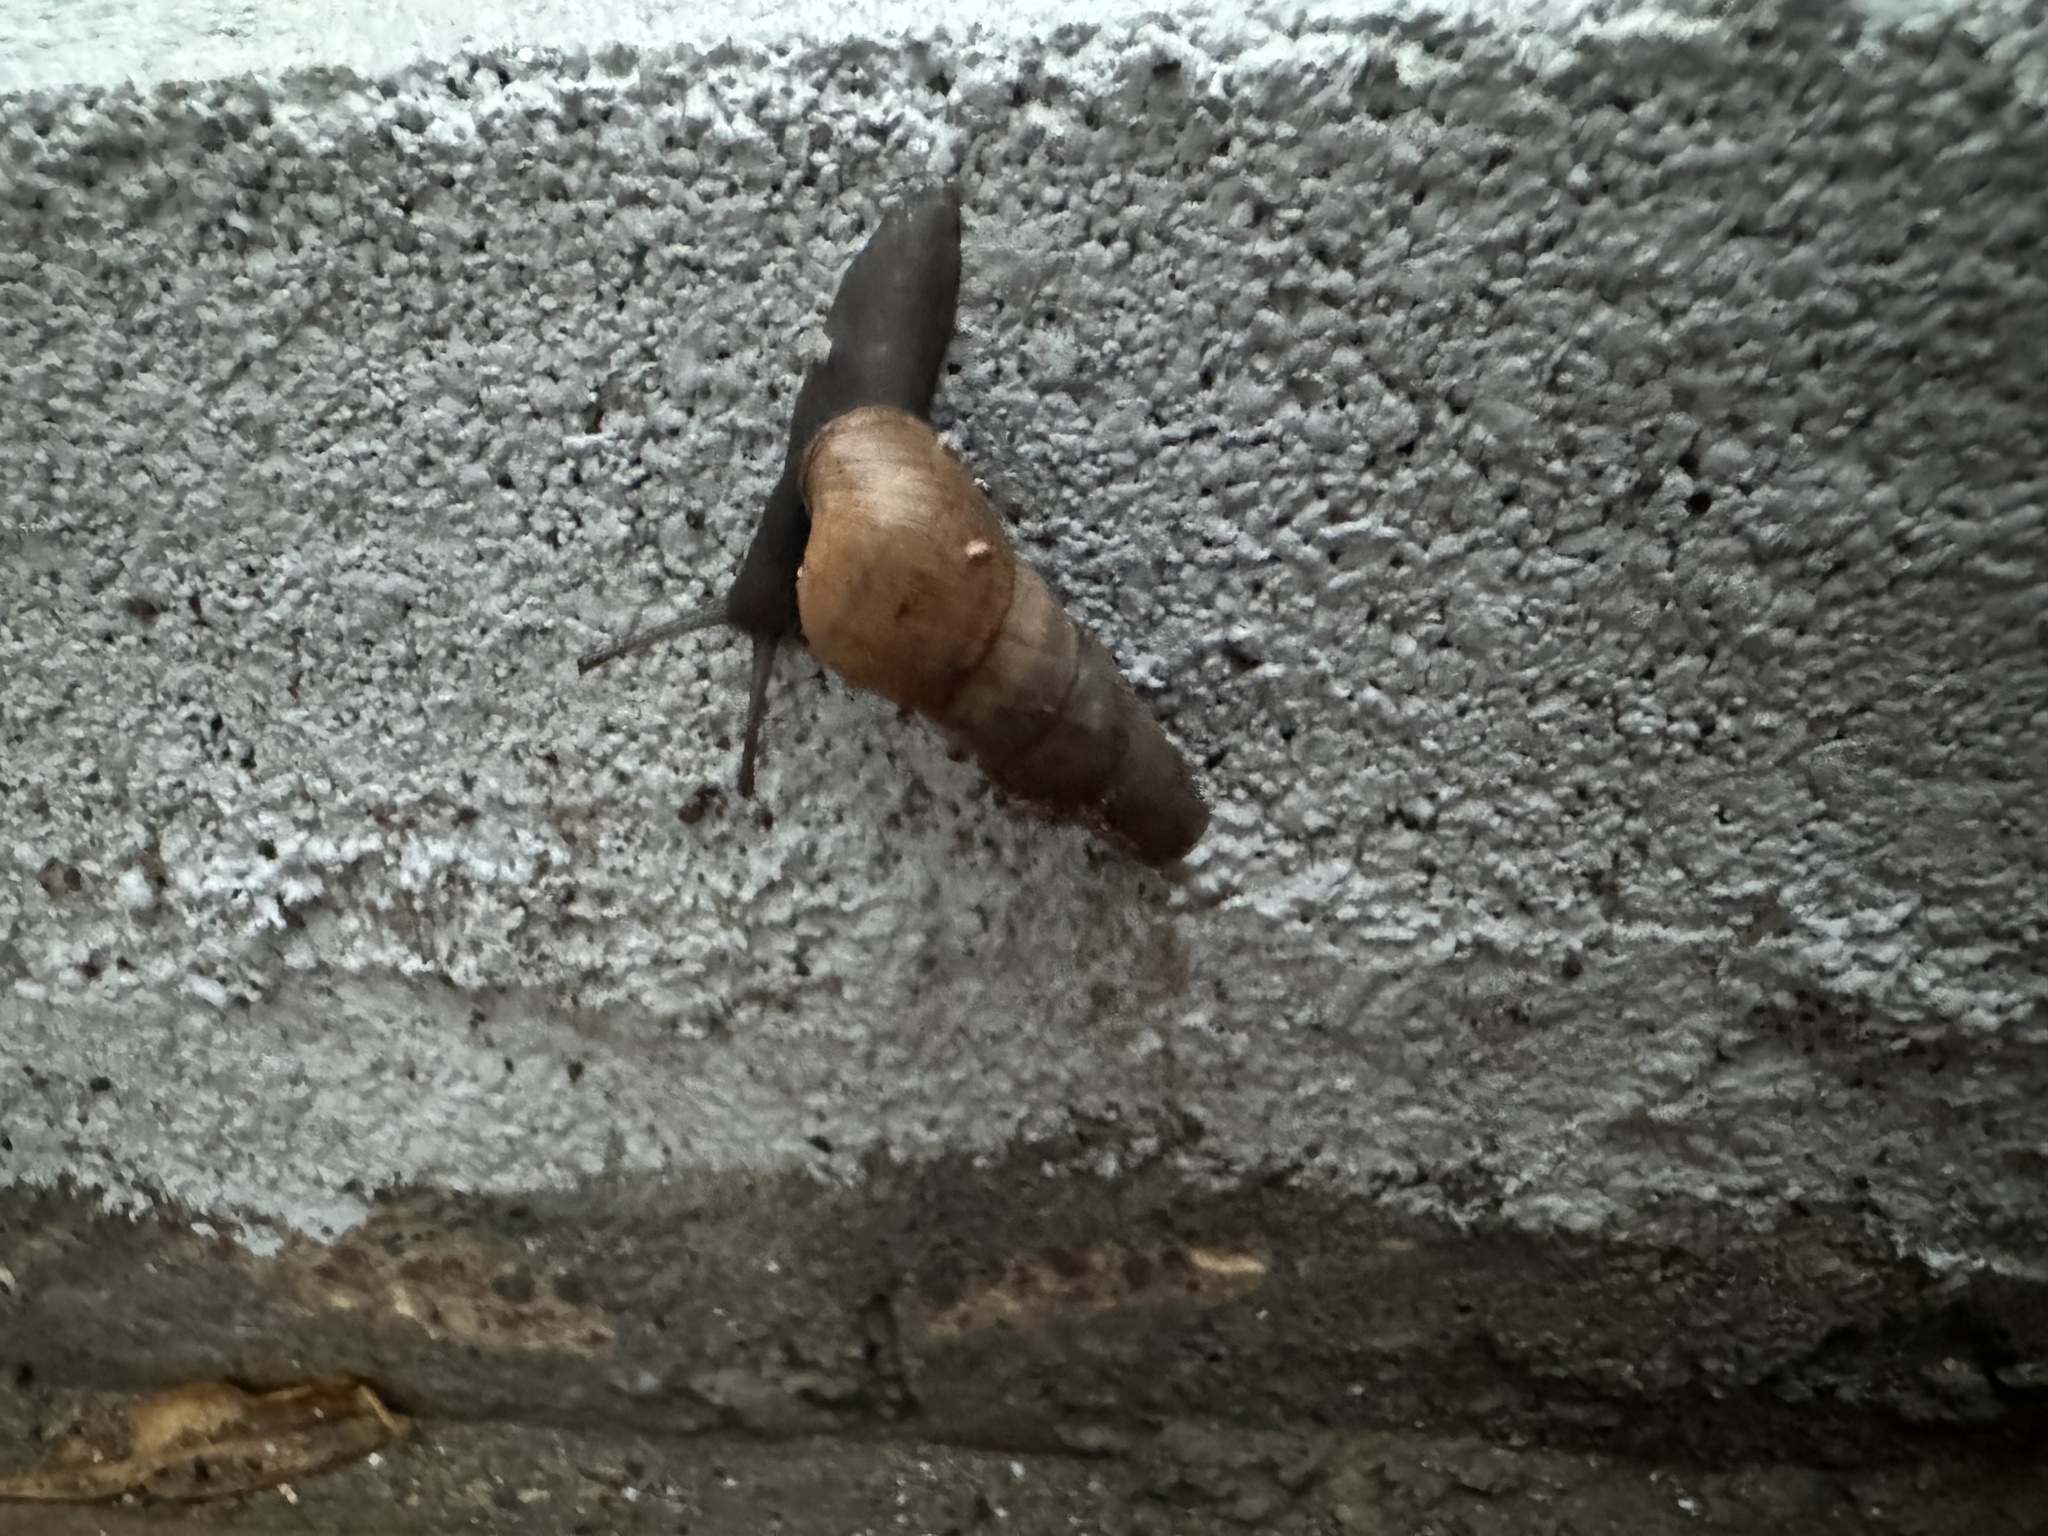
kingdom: Animalia
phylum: Mollusca
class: Gastropoda
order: Stylommatophora
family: Achatinidae
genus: Rumina
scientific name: Rumina decollata
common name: Decollate snail
